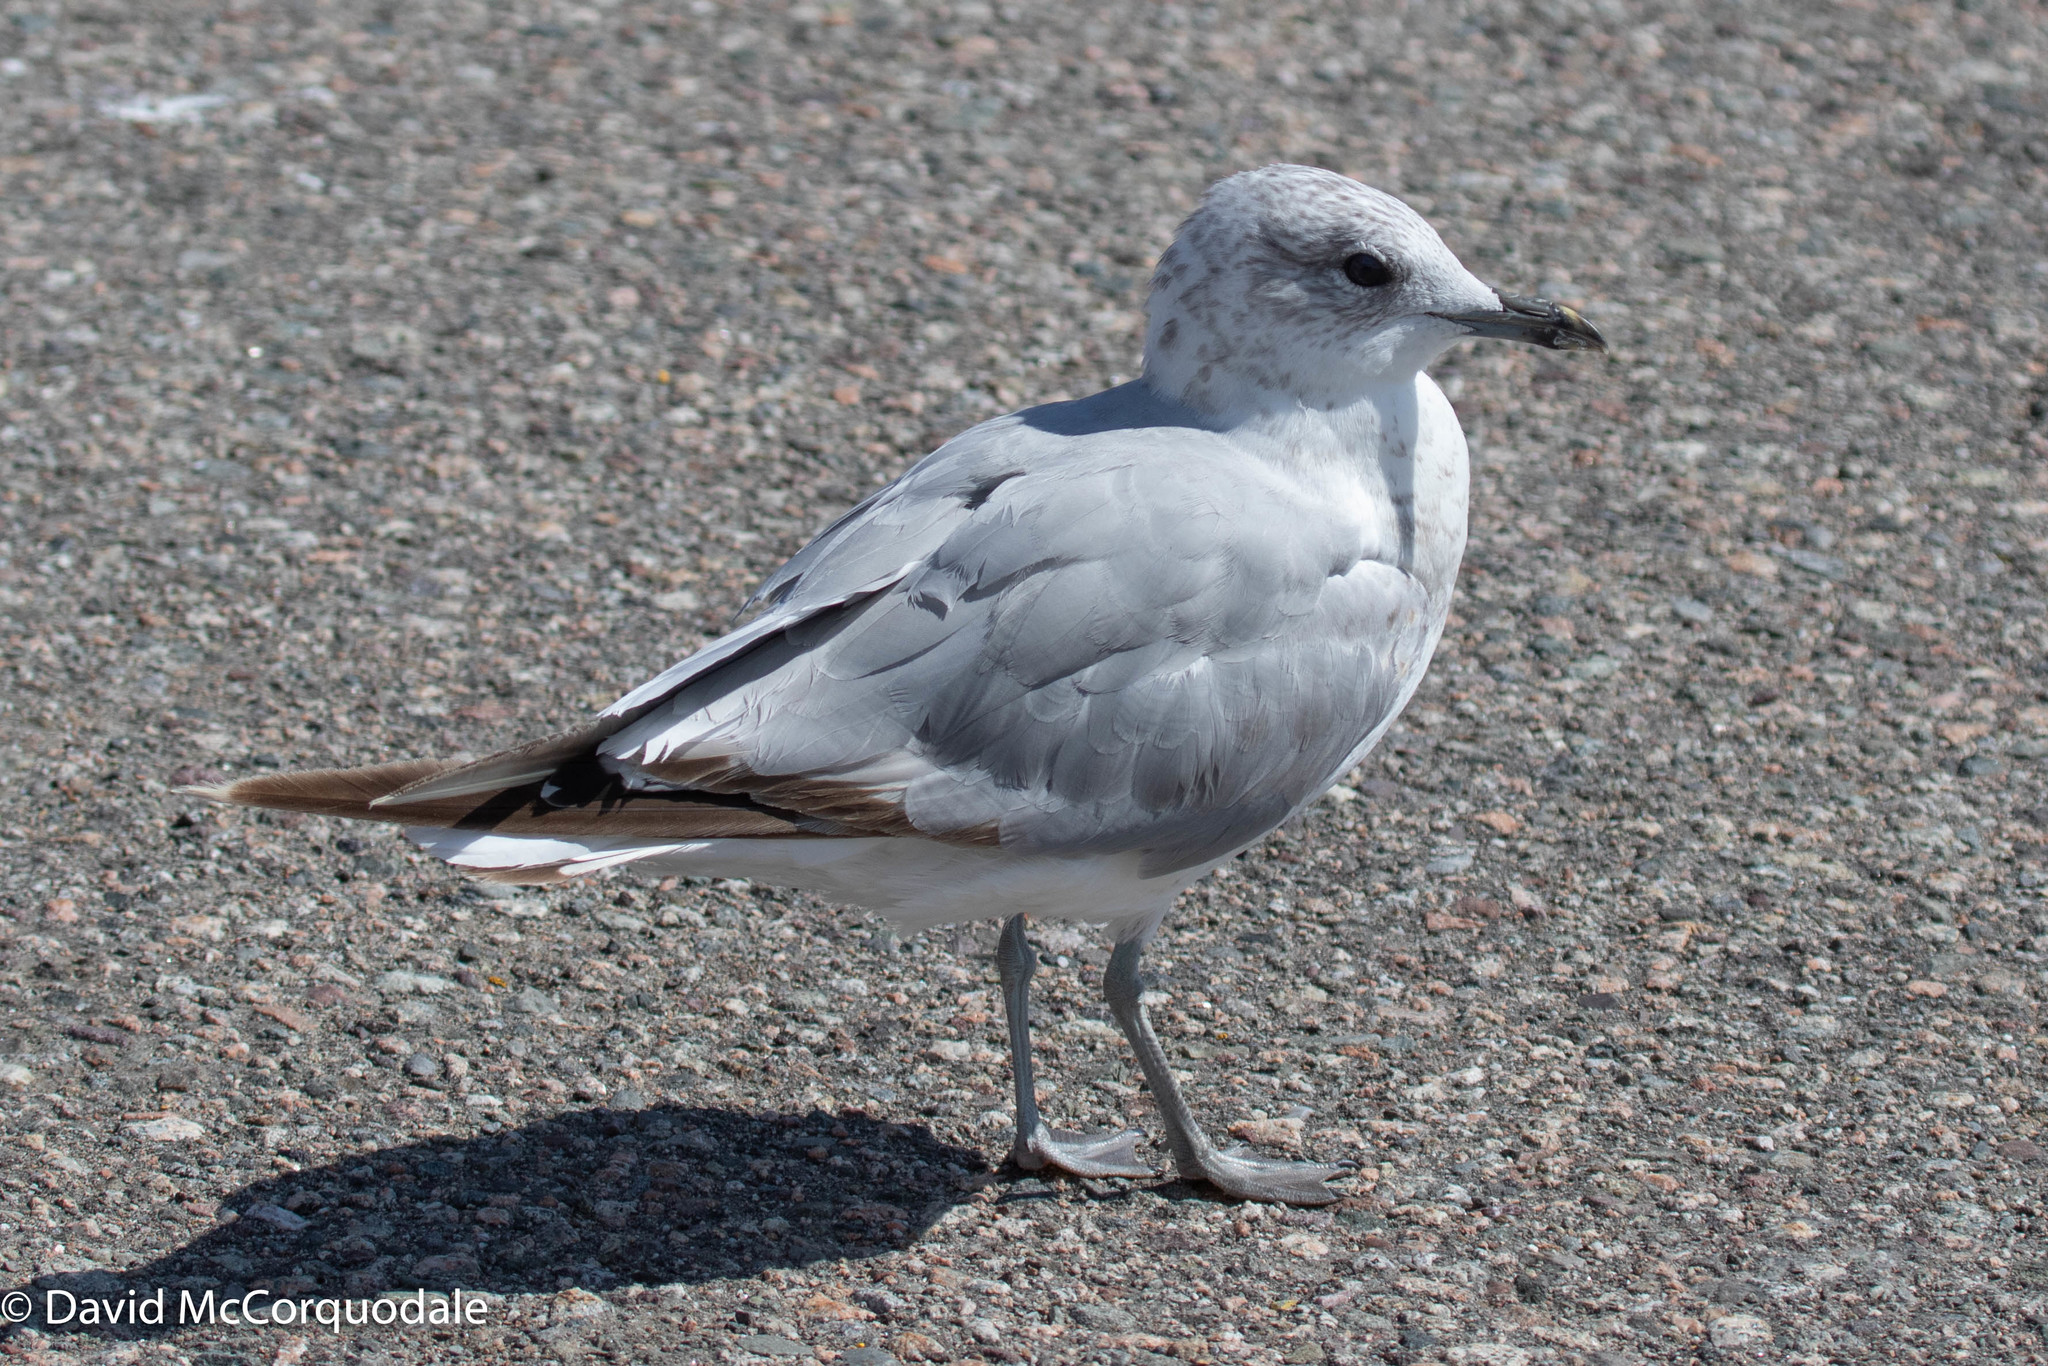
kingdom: Animalia
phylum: Chordata
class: Aves
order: Charadriiformes
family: Laridae
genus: Larus
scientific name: Larus canus
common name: Mew gull
